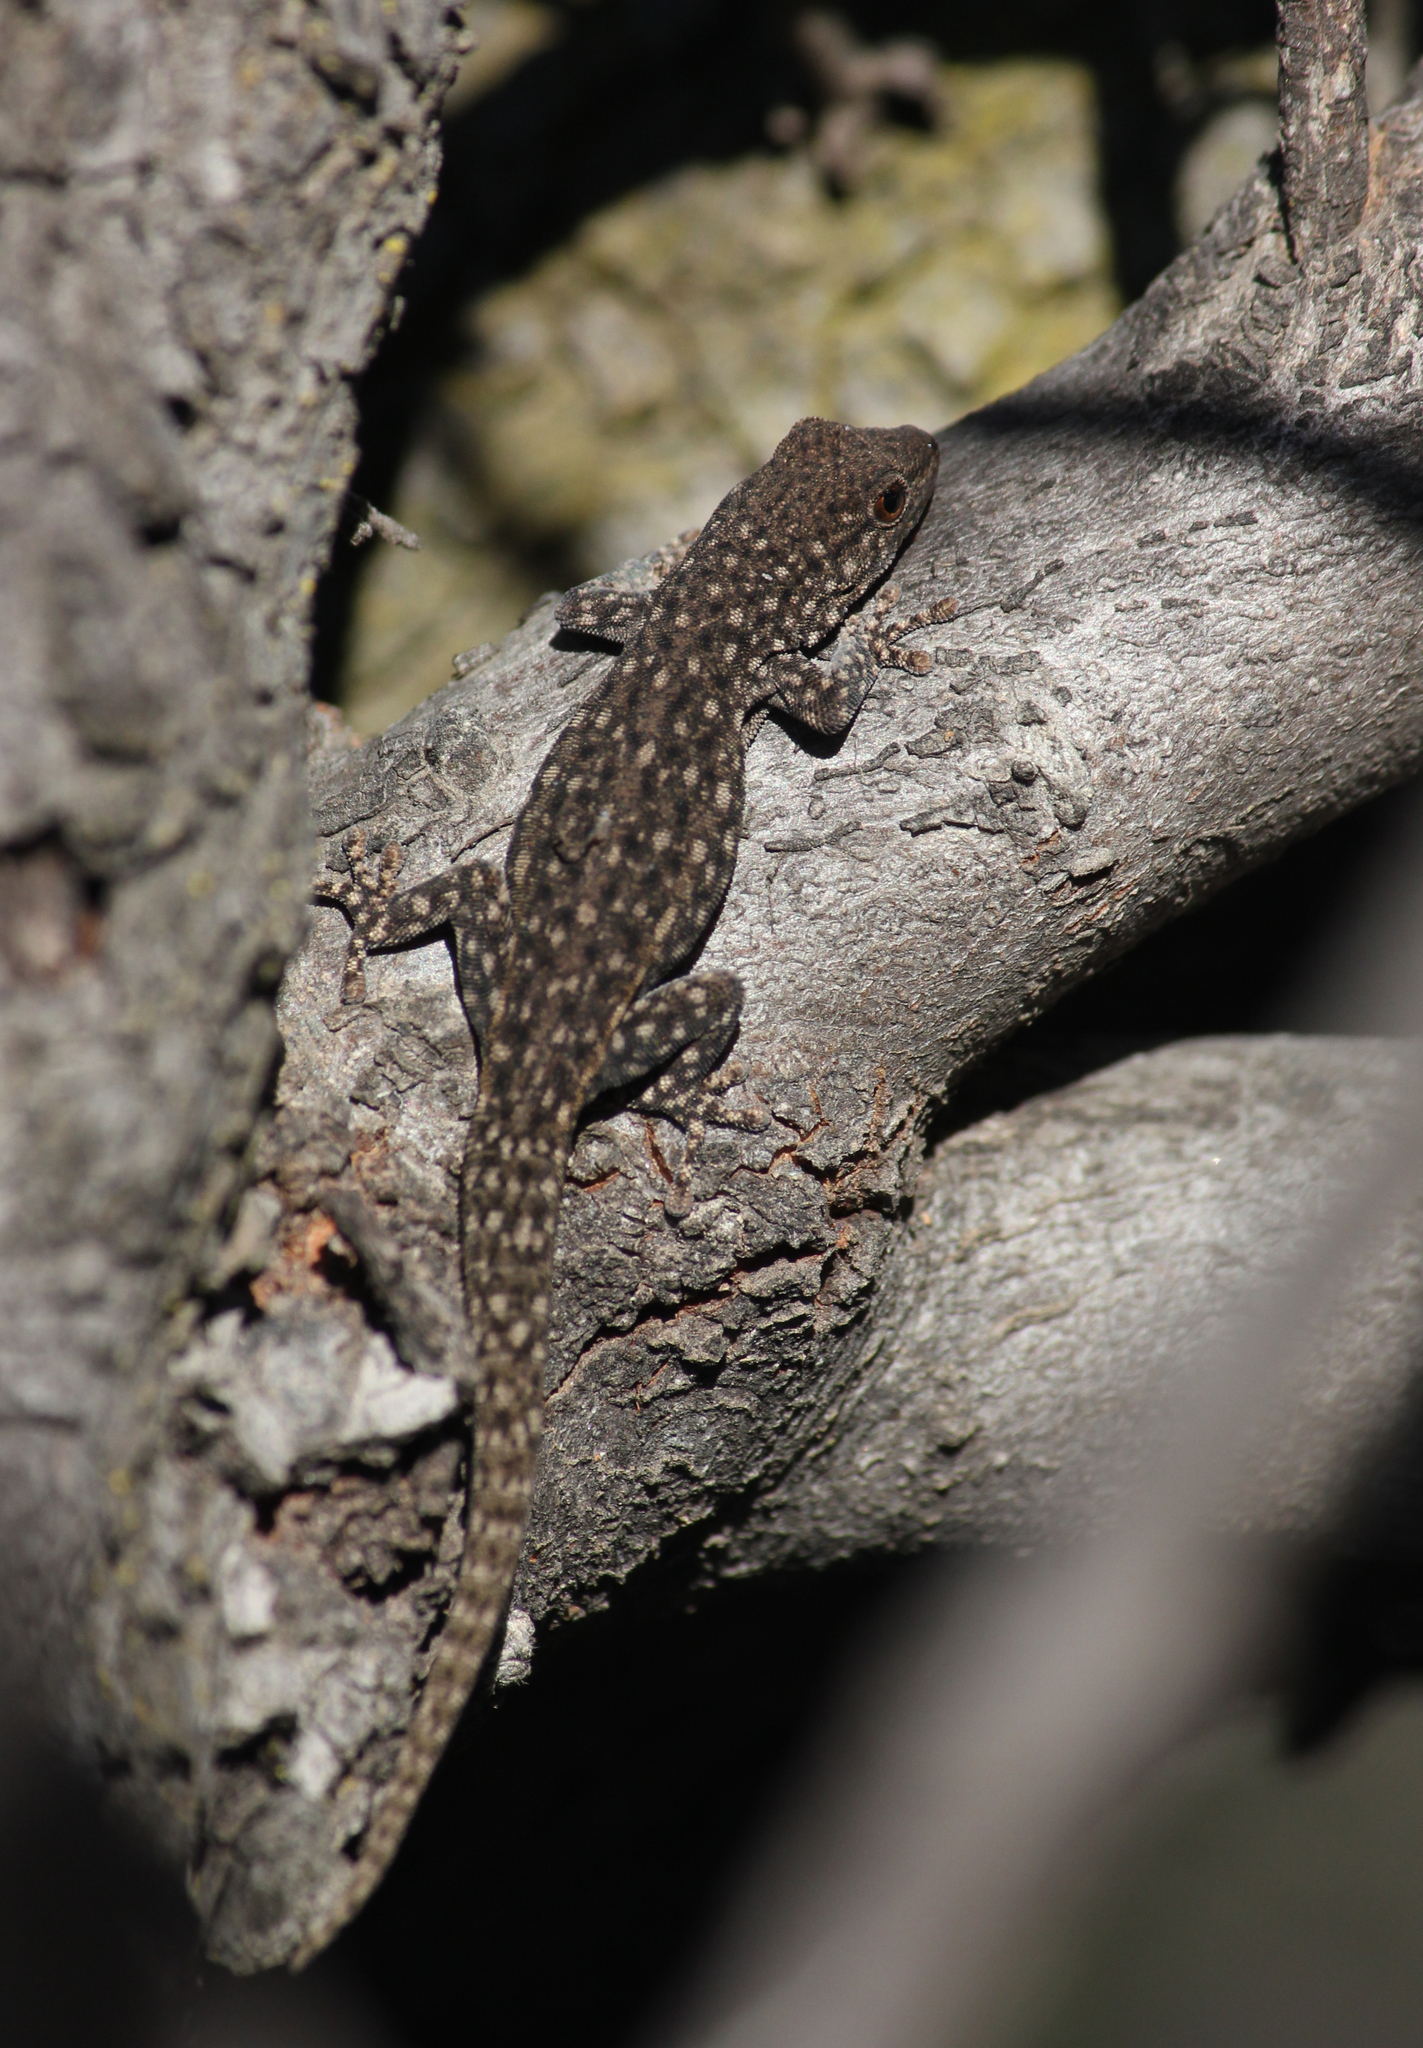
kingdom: Animalia
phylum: Chordata
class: Squamata
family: Gekkonidae
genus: Rhoptropella
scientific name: Rhoptropella ocellata
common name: Namaqua day gecko
